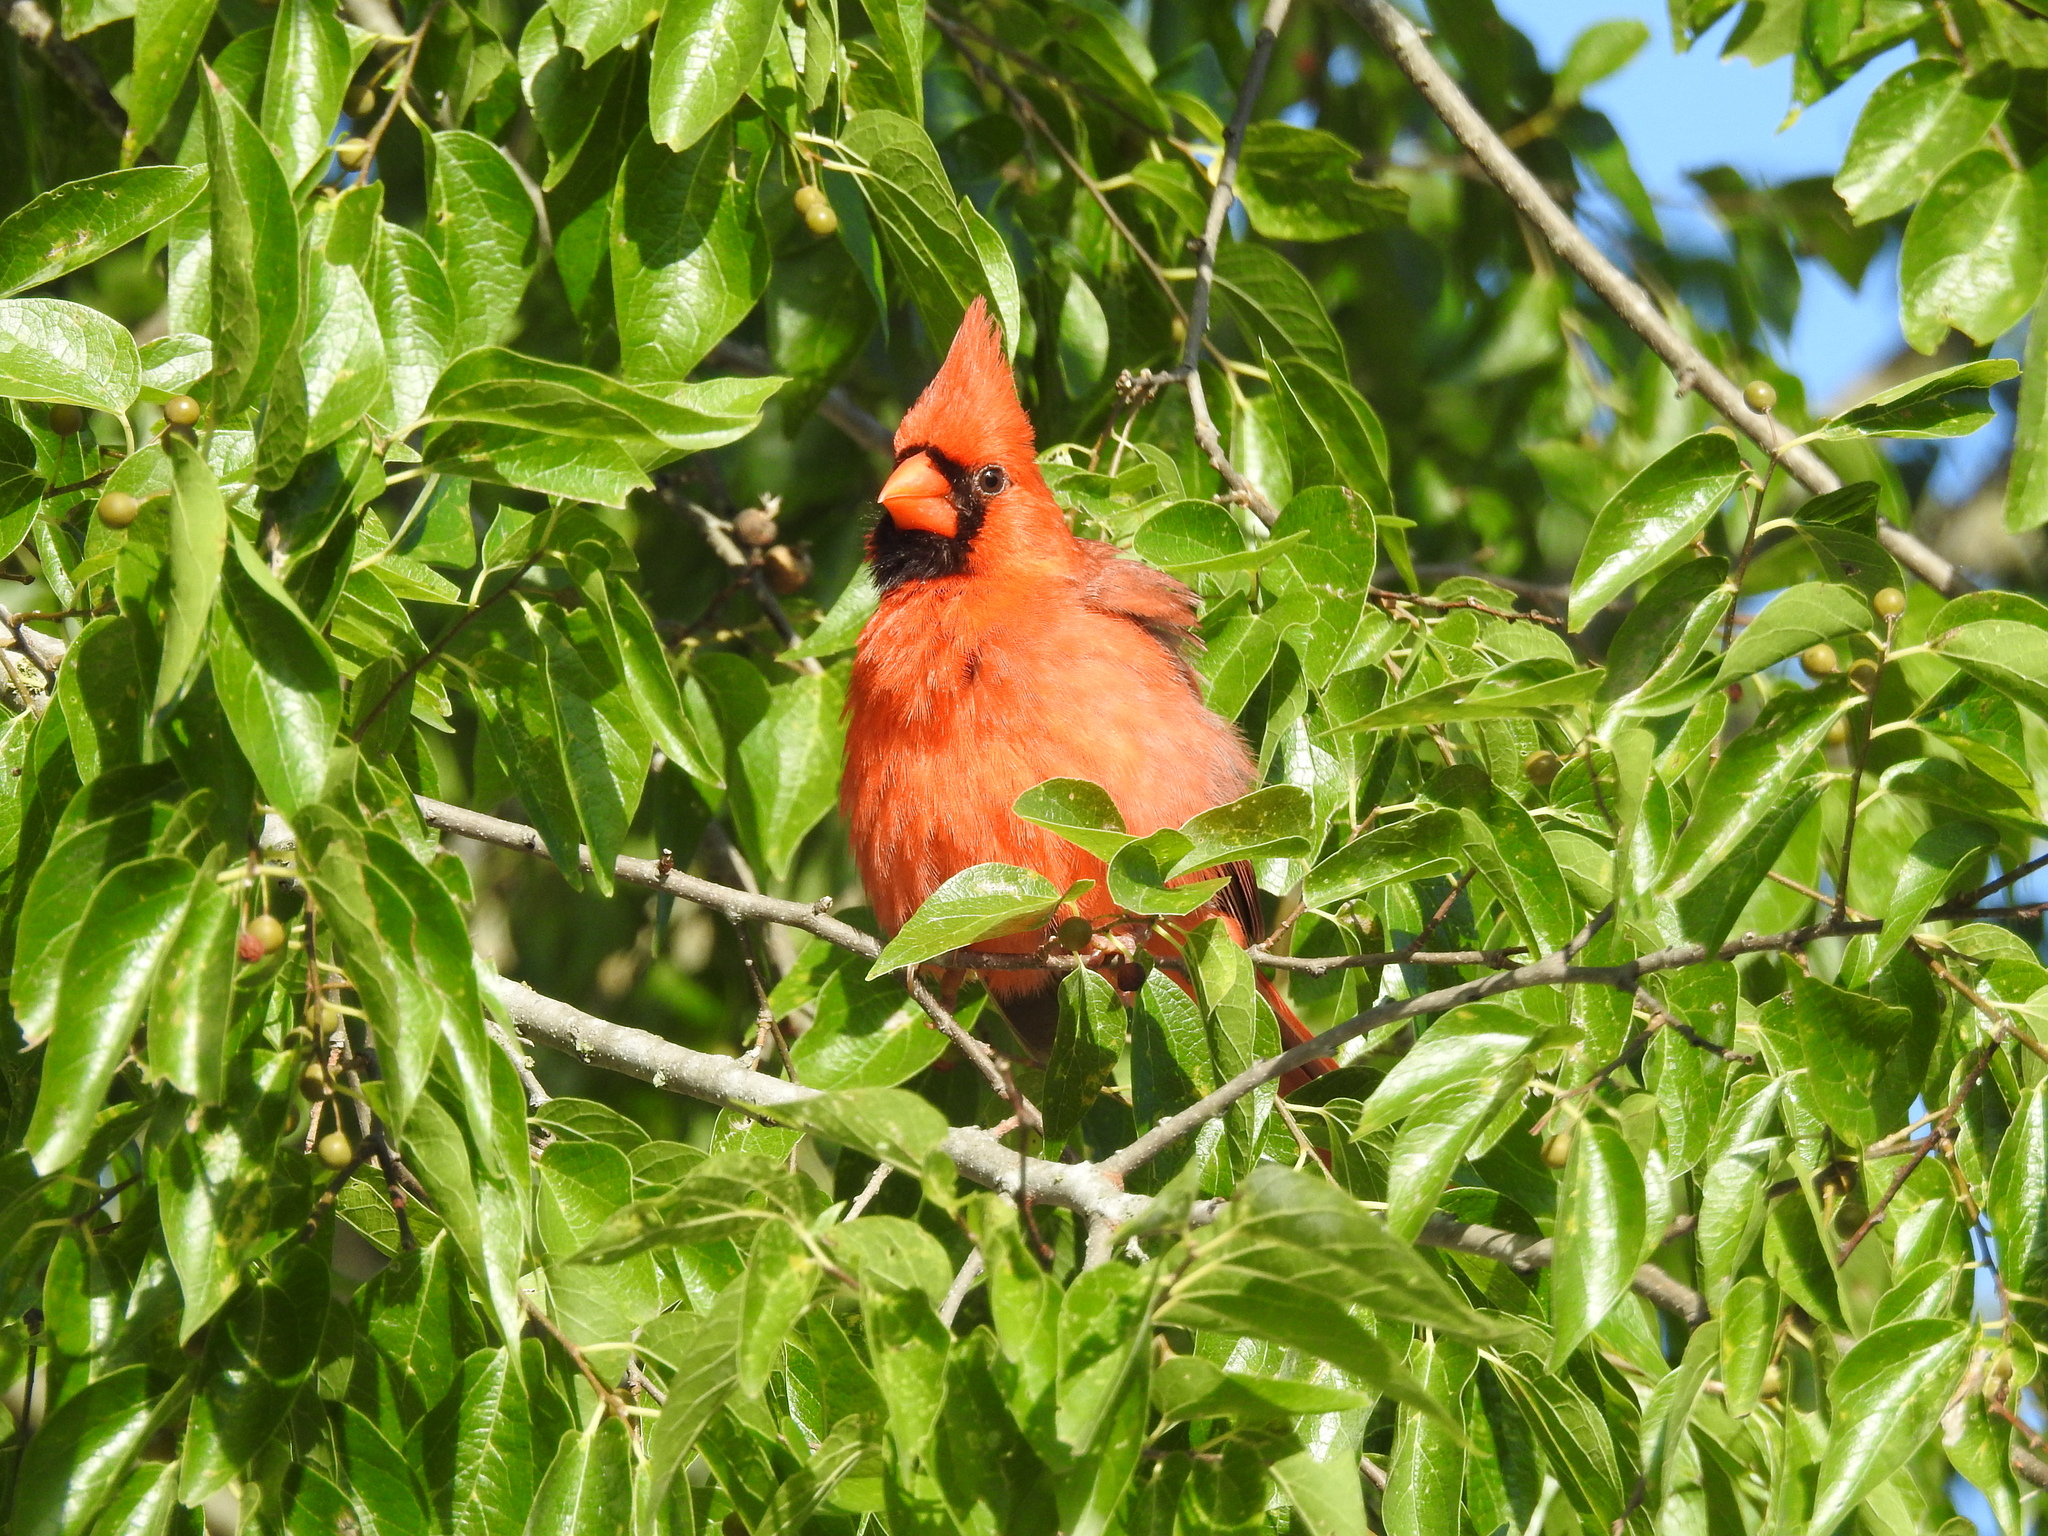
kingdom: Animalia
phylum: Chordata
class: Aves
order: Passeriformes
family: Cardinalidae
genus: Cardinalis
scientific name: Cardinalis cardinalis
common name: Northern cardinal
